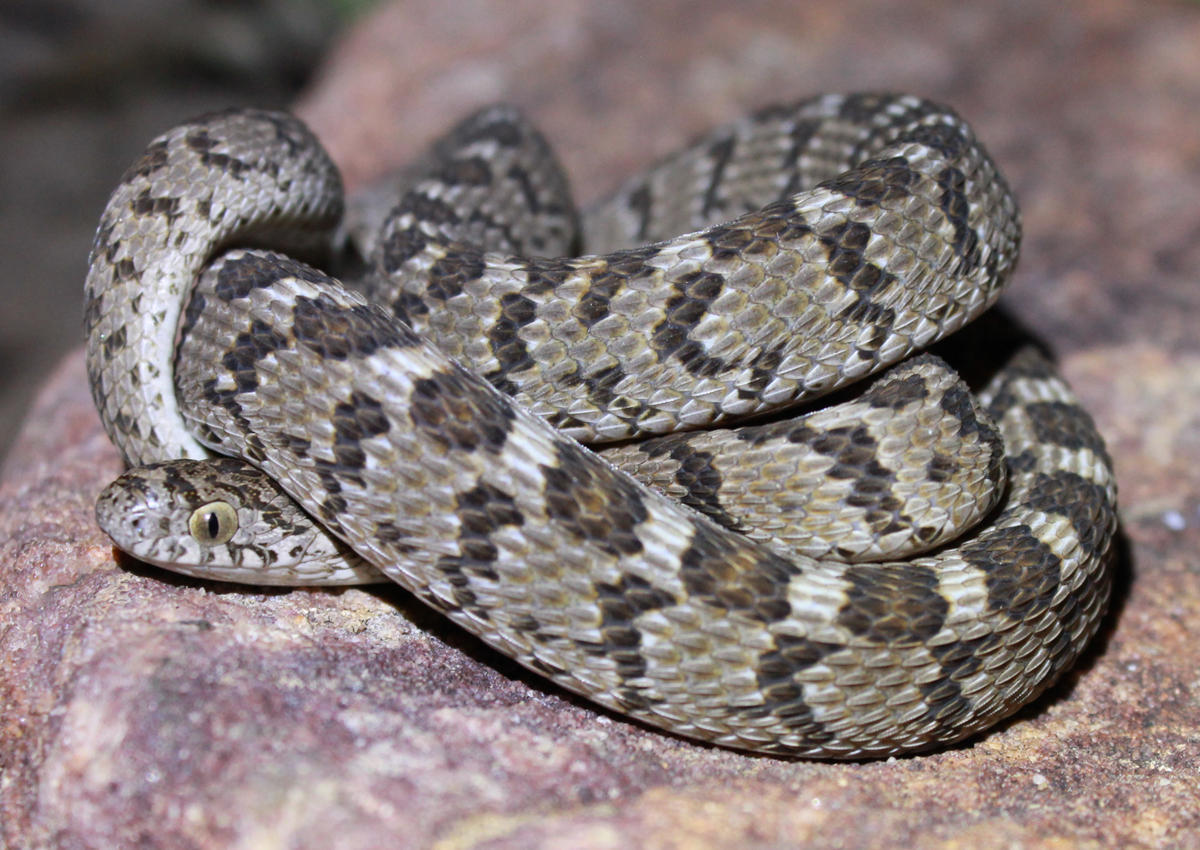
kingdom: Animalia
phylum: Chordata
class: Squamata
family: Colubridae
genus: Dasypeltis
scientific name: Dasypeltis scabra
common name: Common egg eater
